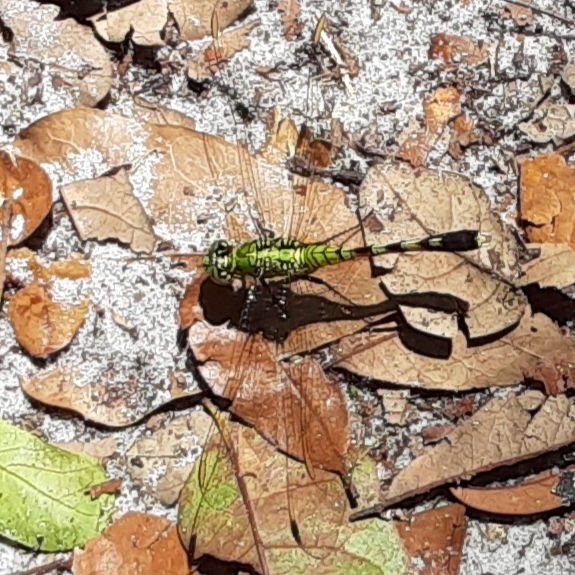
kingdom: Animalia
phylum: Arthropoda
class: Insecta
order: Odonata
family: Libellulidae
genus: Erythemis
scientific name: Erythemis simplicicollis
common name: Eastern pondhawk
